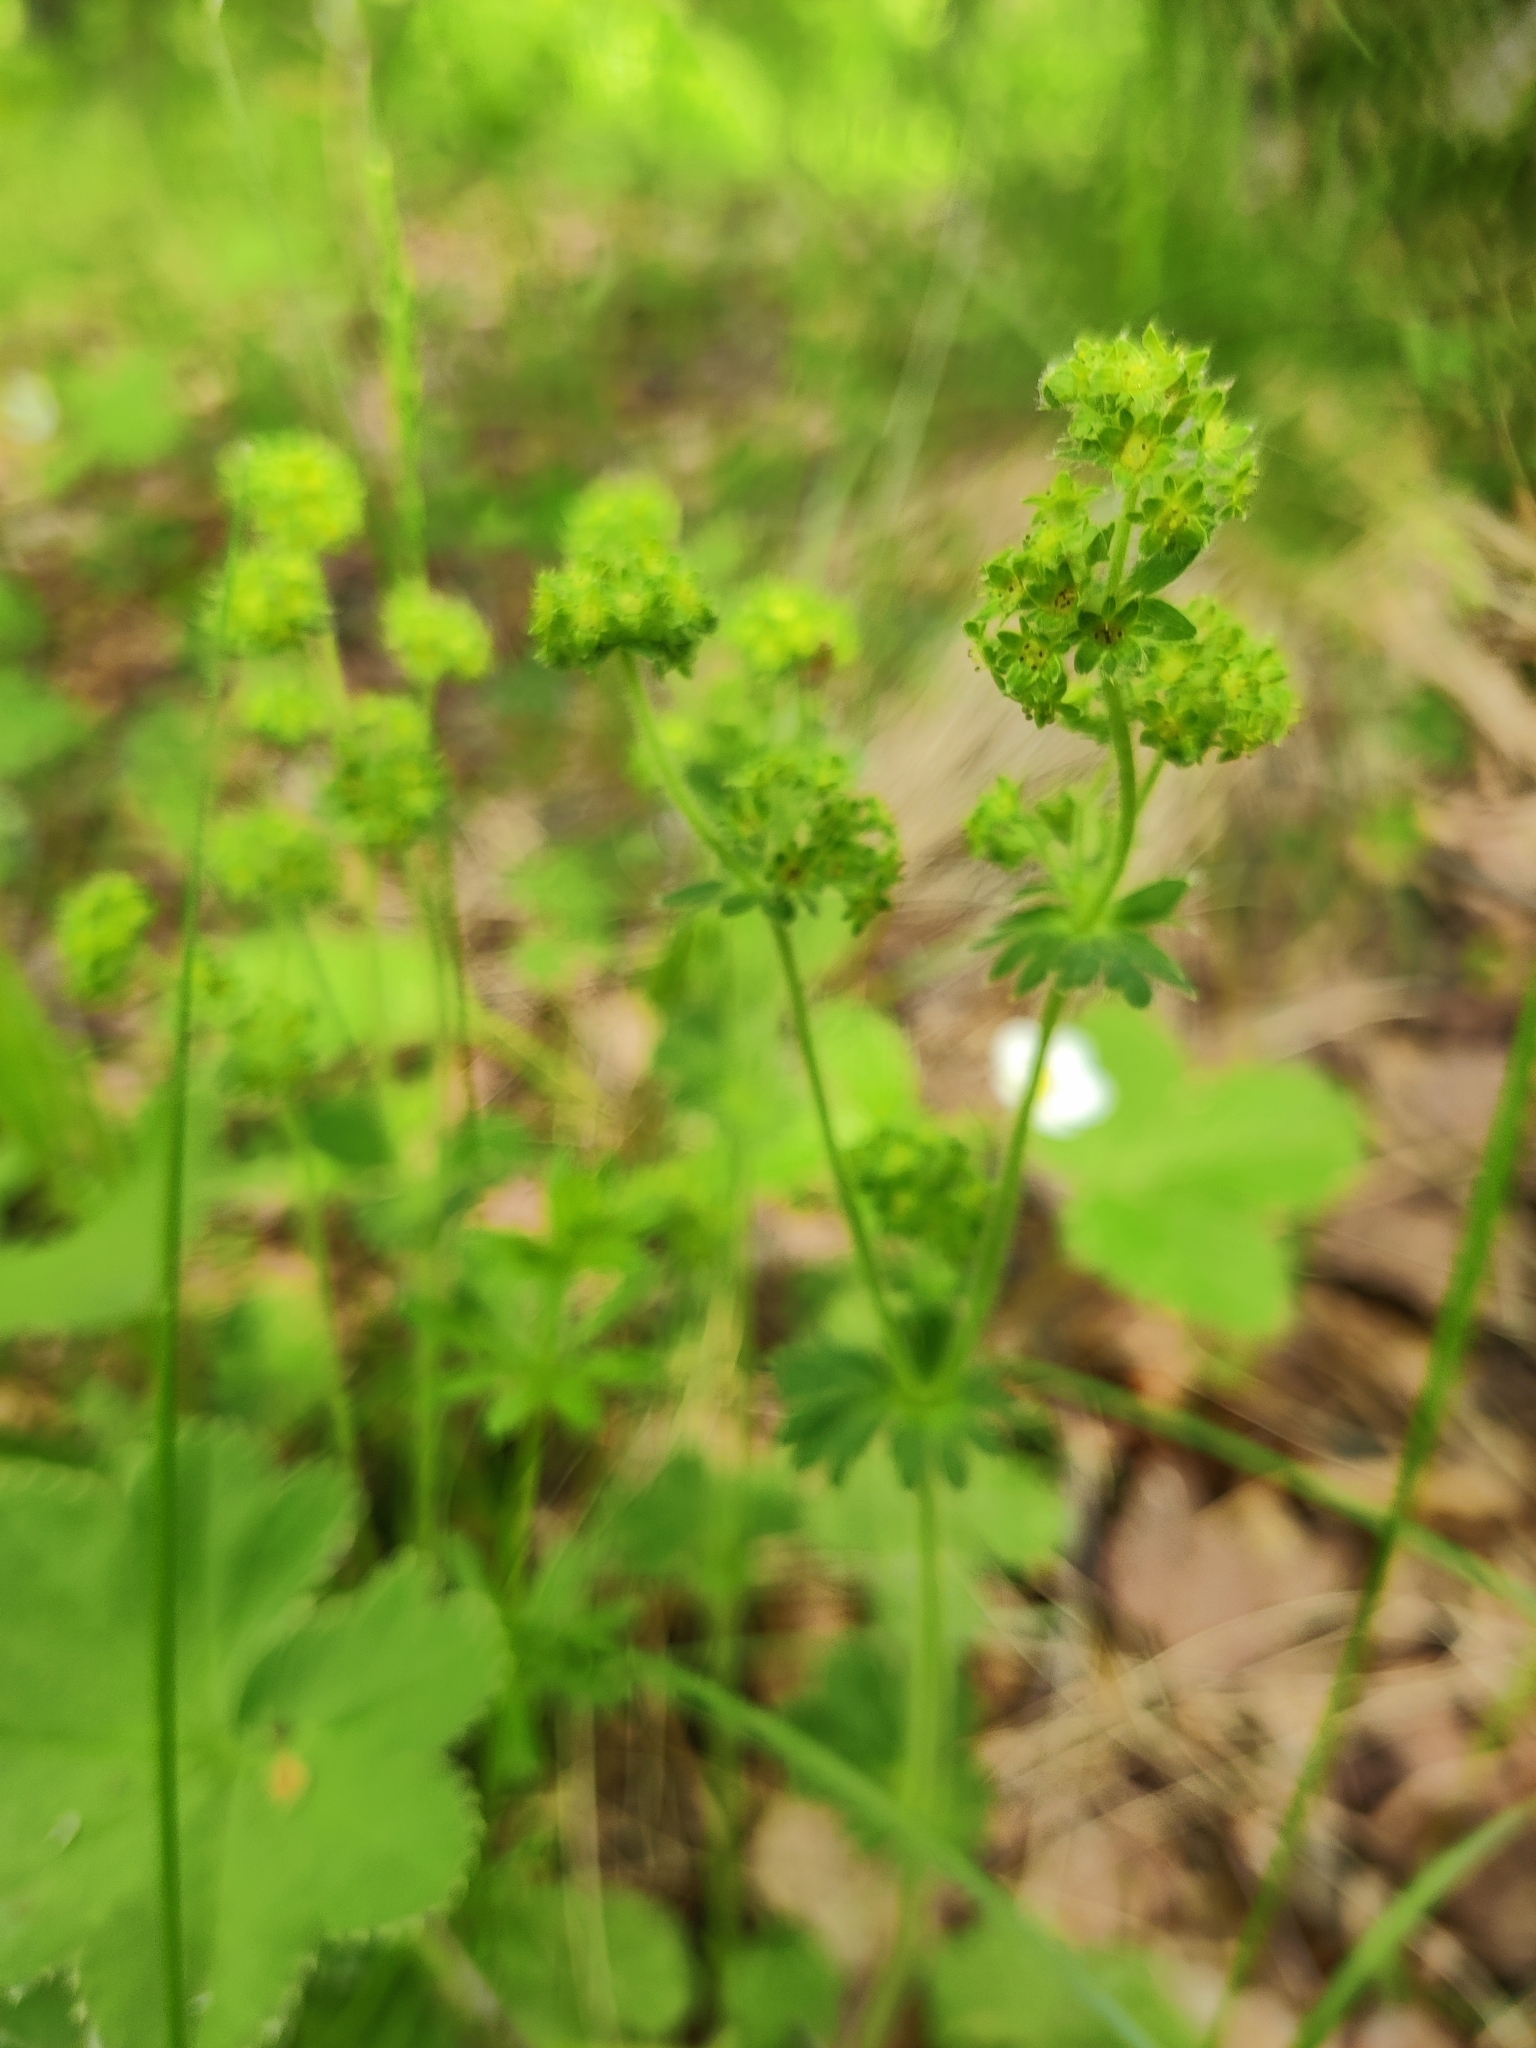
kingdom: Plantae
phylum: Tracheophyta
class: Magnoliopsida
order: Rosales
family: Rosaceae
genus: Alchemilla
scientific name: Alchemilla
